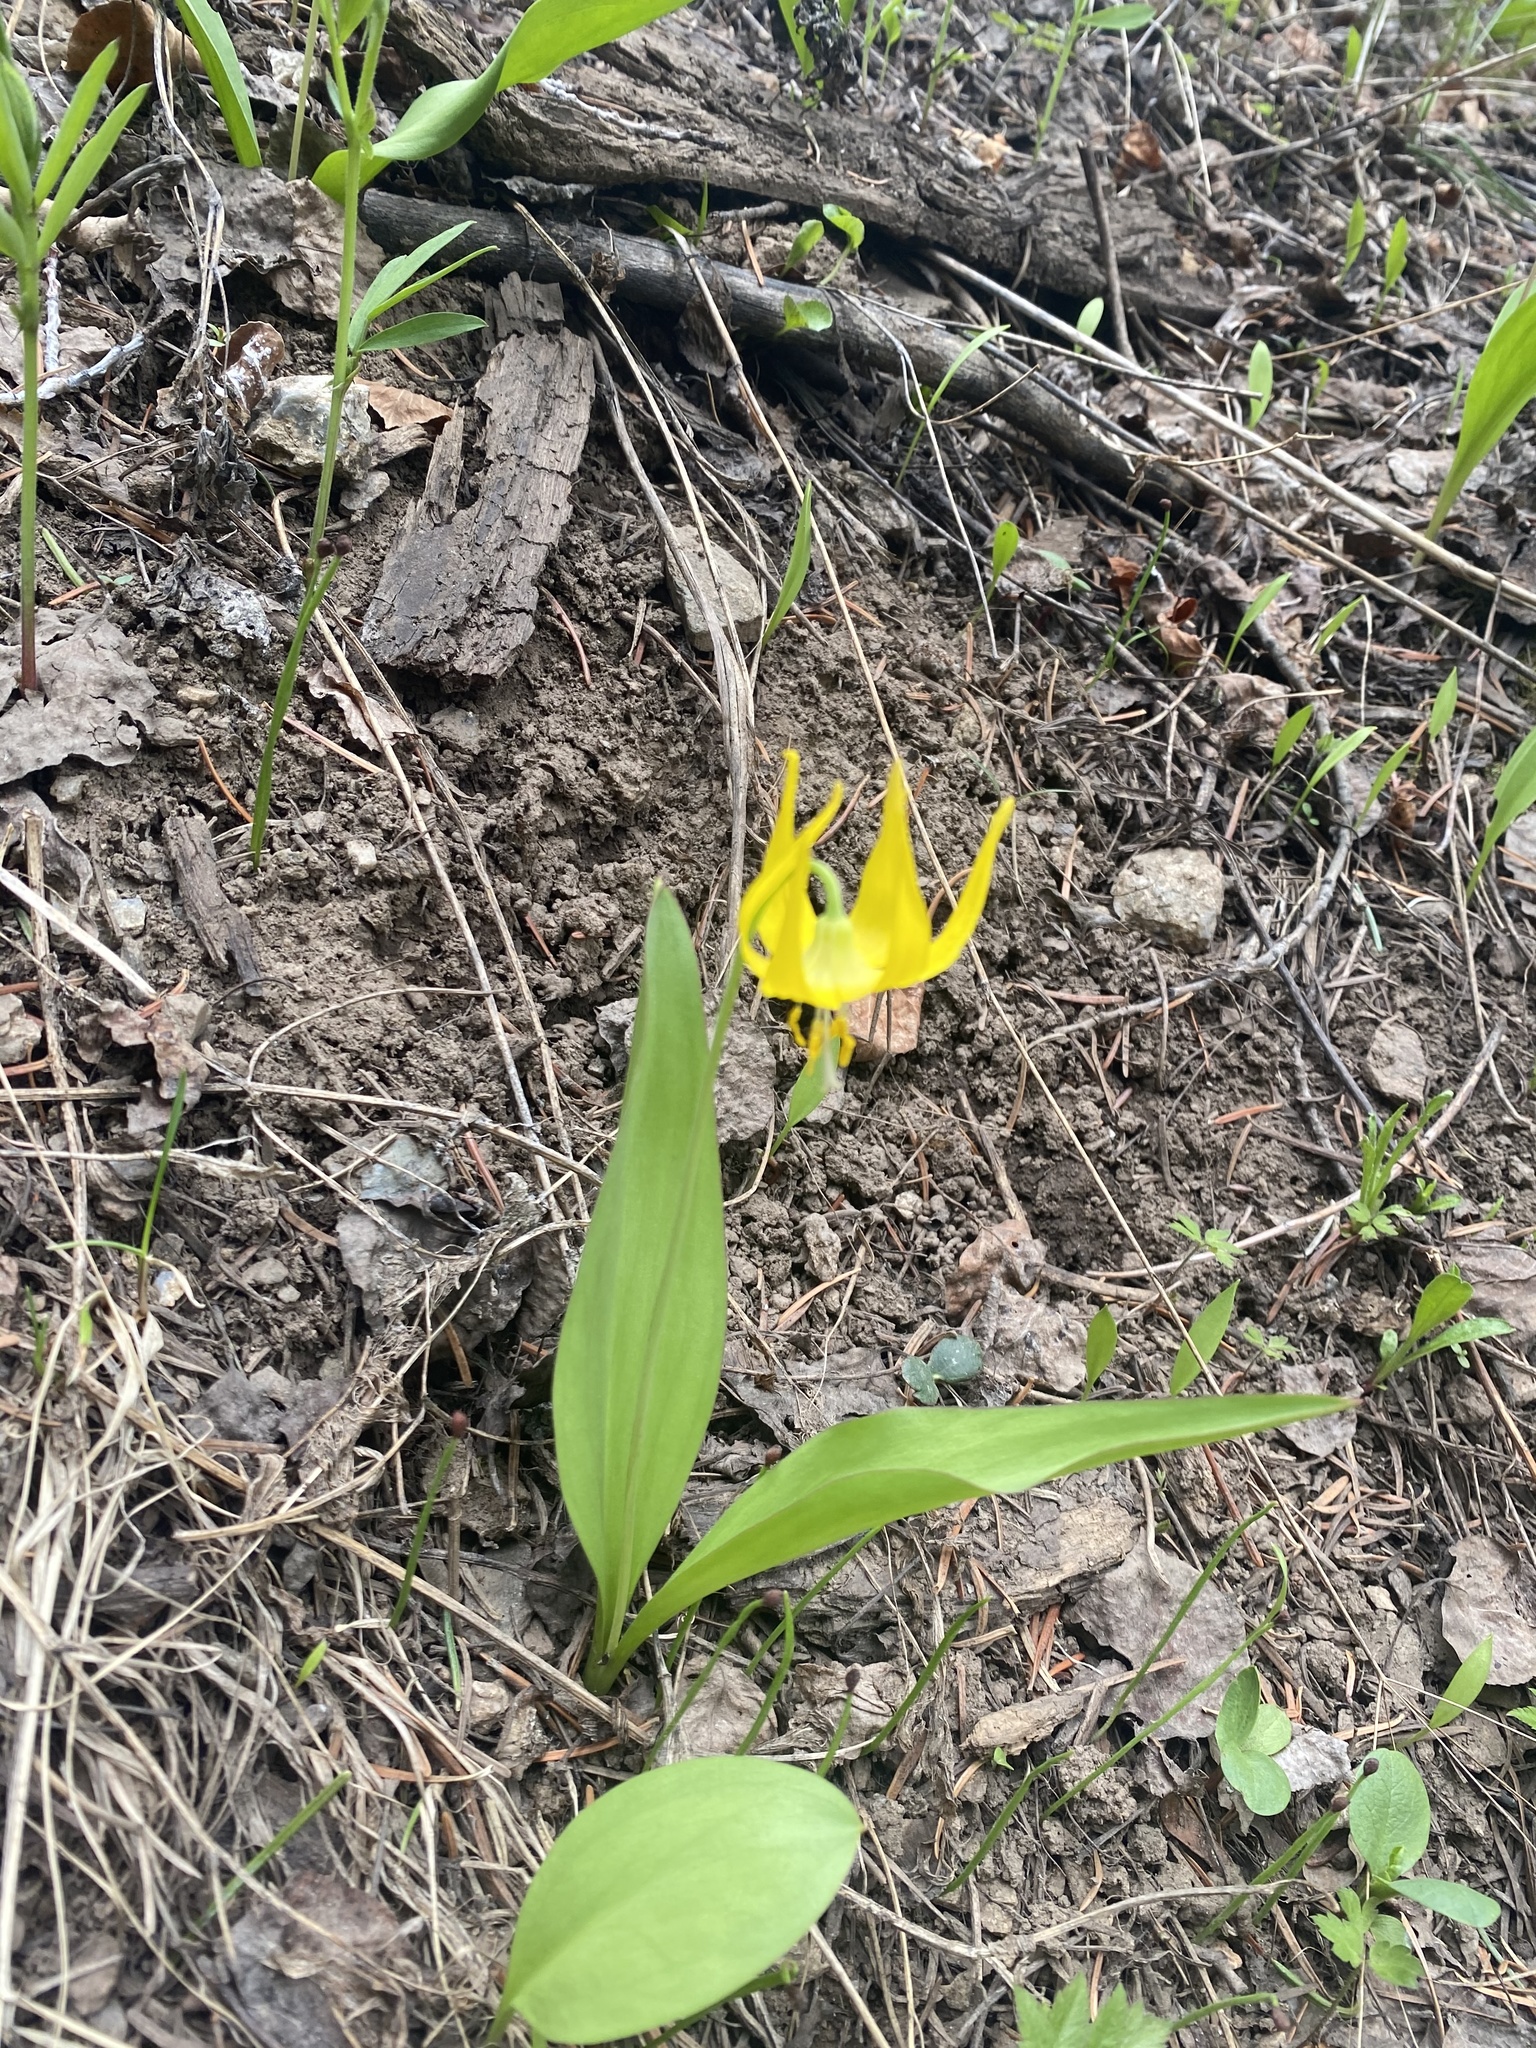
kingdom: Plantae
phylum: Tracheophyta
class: Liliopsida
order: Liliales
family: Liliaceae
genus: Erythronium
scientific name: Erythronium grandiflorum
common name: Avalanche-lily
